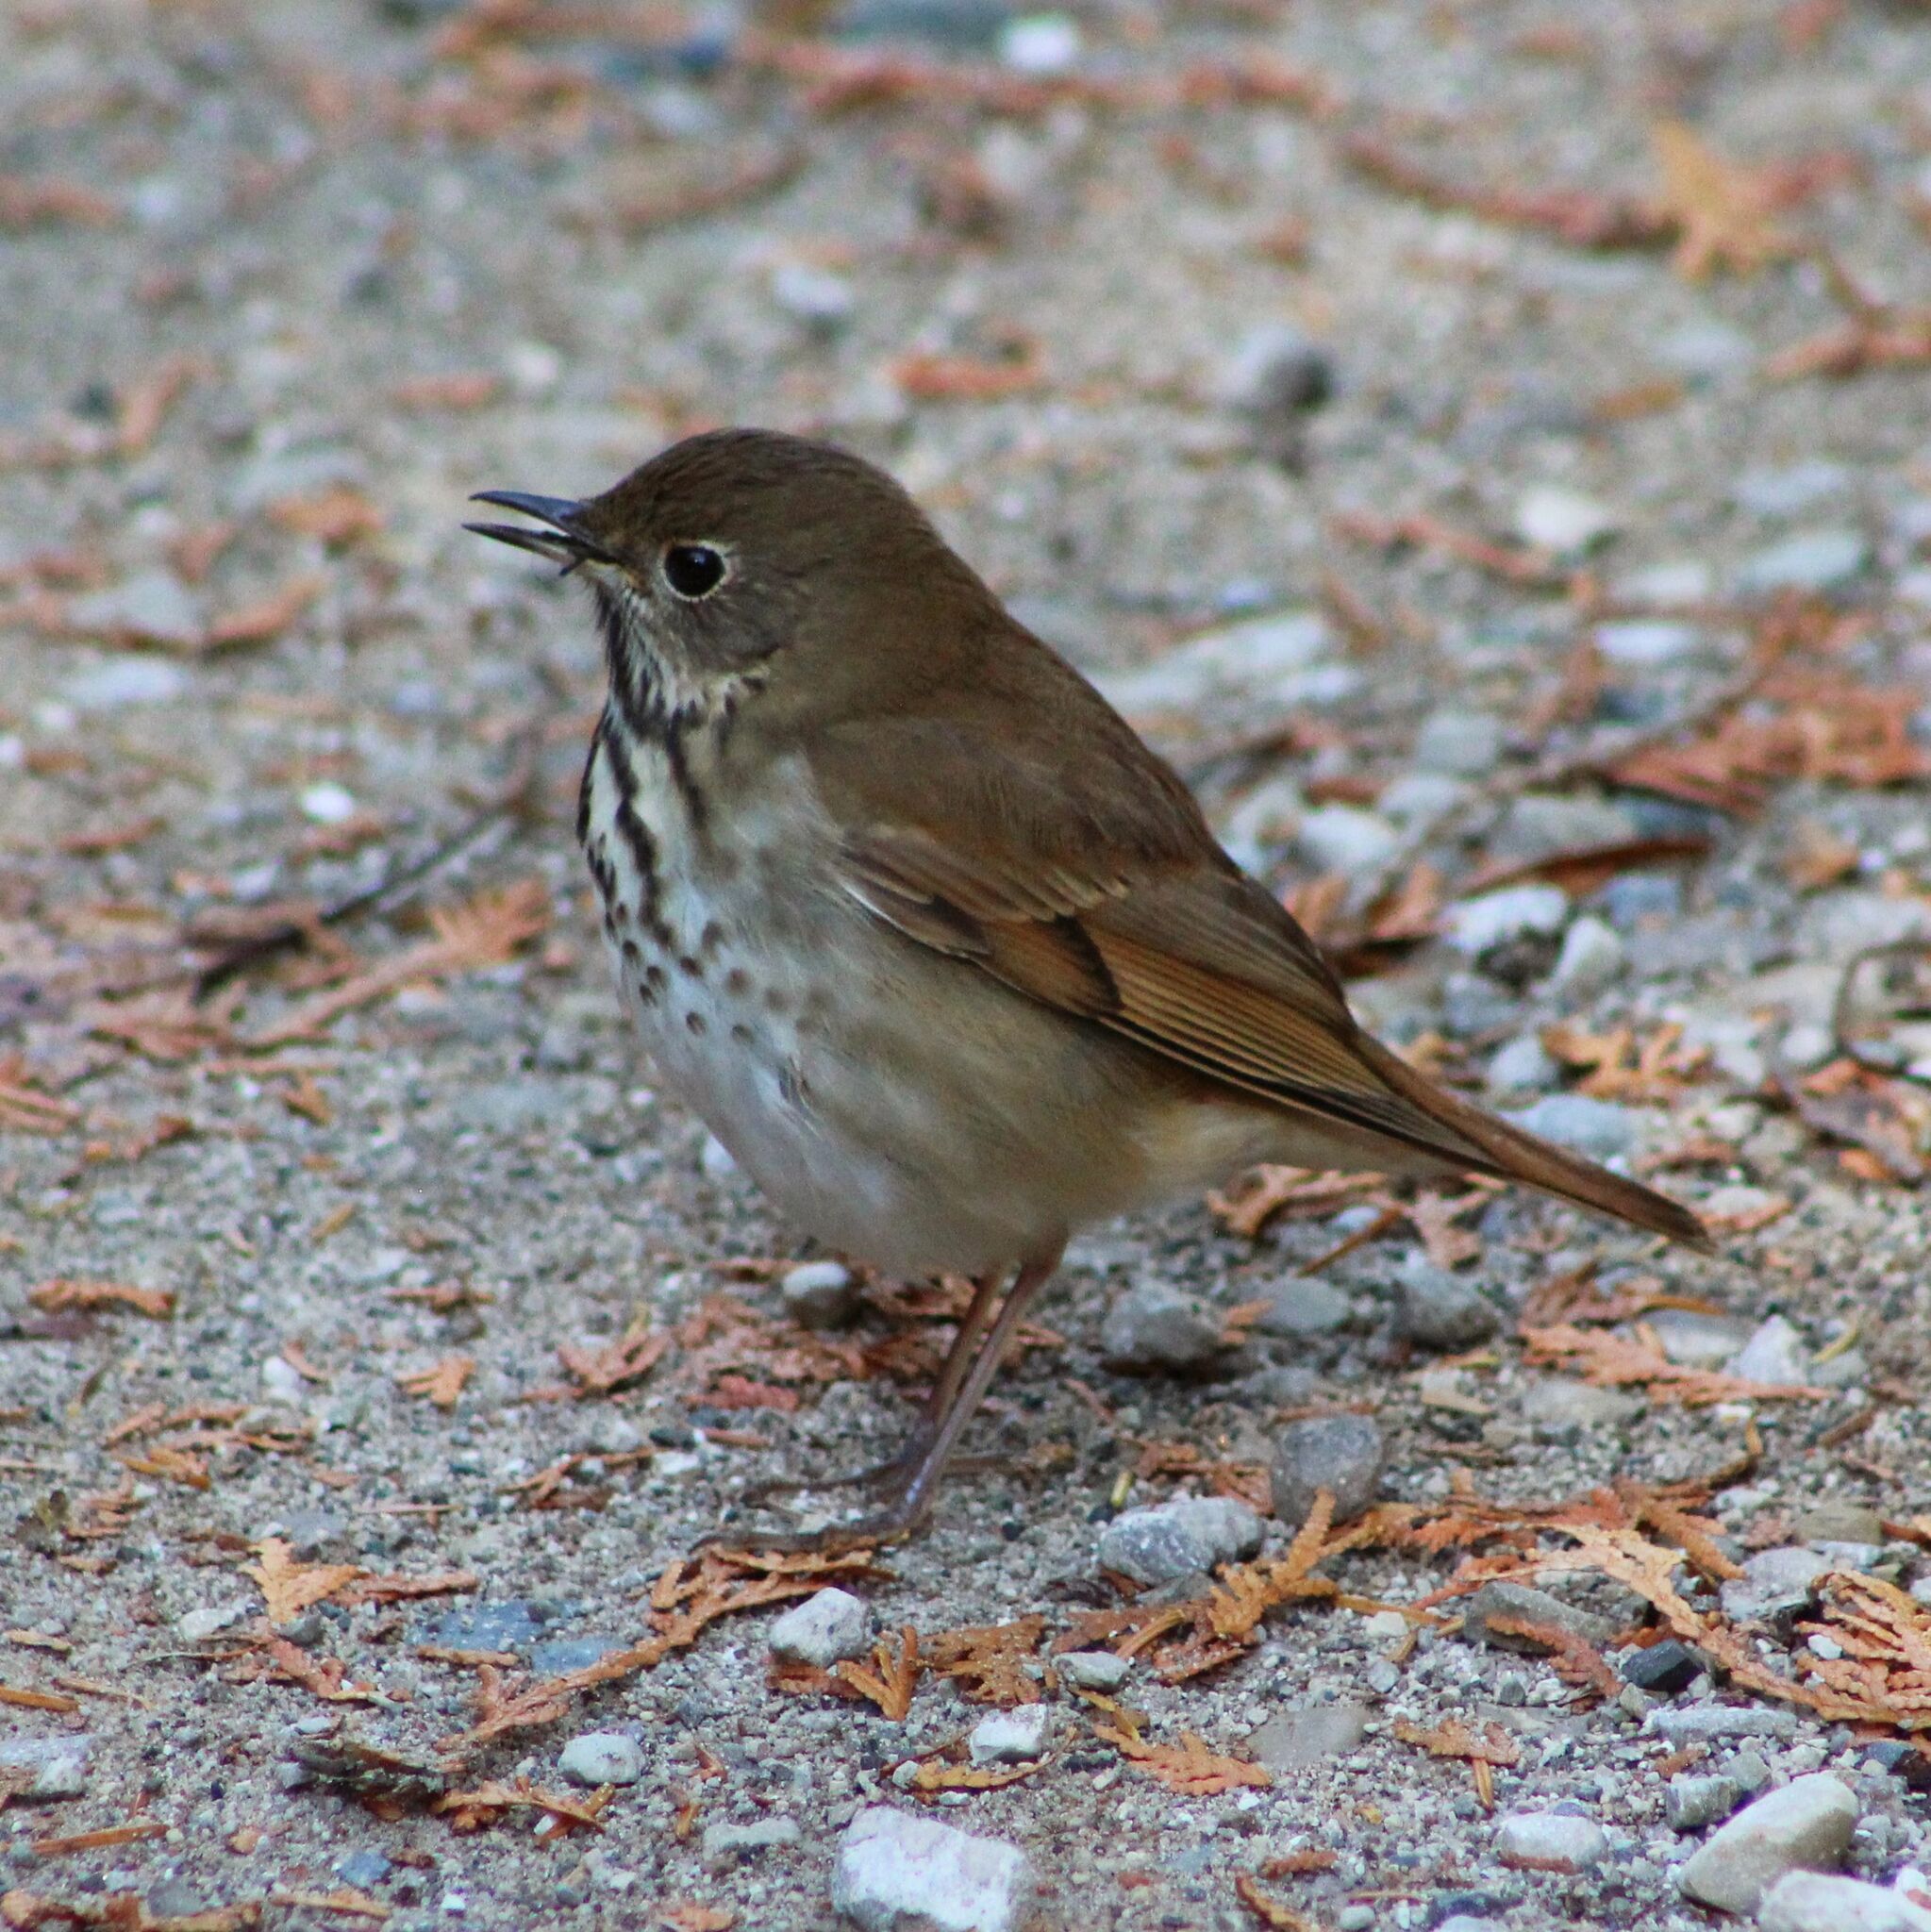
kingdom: Animalia
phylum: Chordata
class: Aves
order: Passeriformes
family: Turdidae
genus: Catharus
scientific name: Catharus guttatus
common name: Hermit thrush
